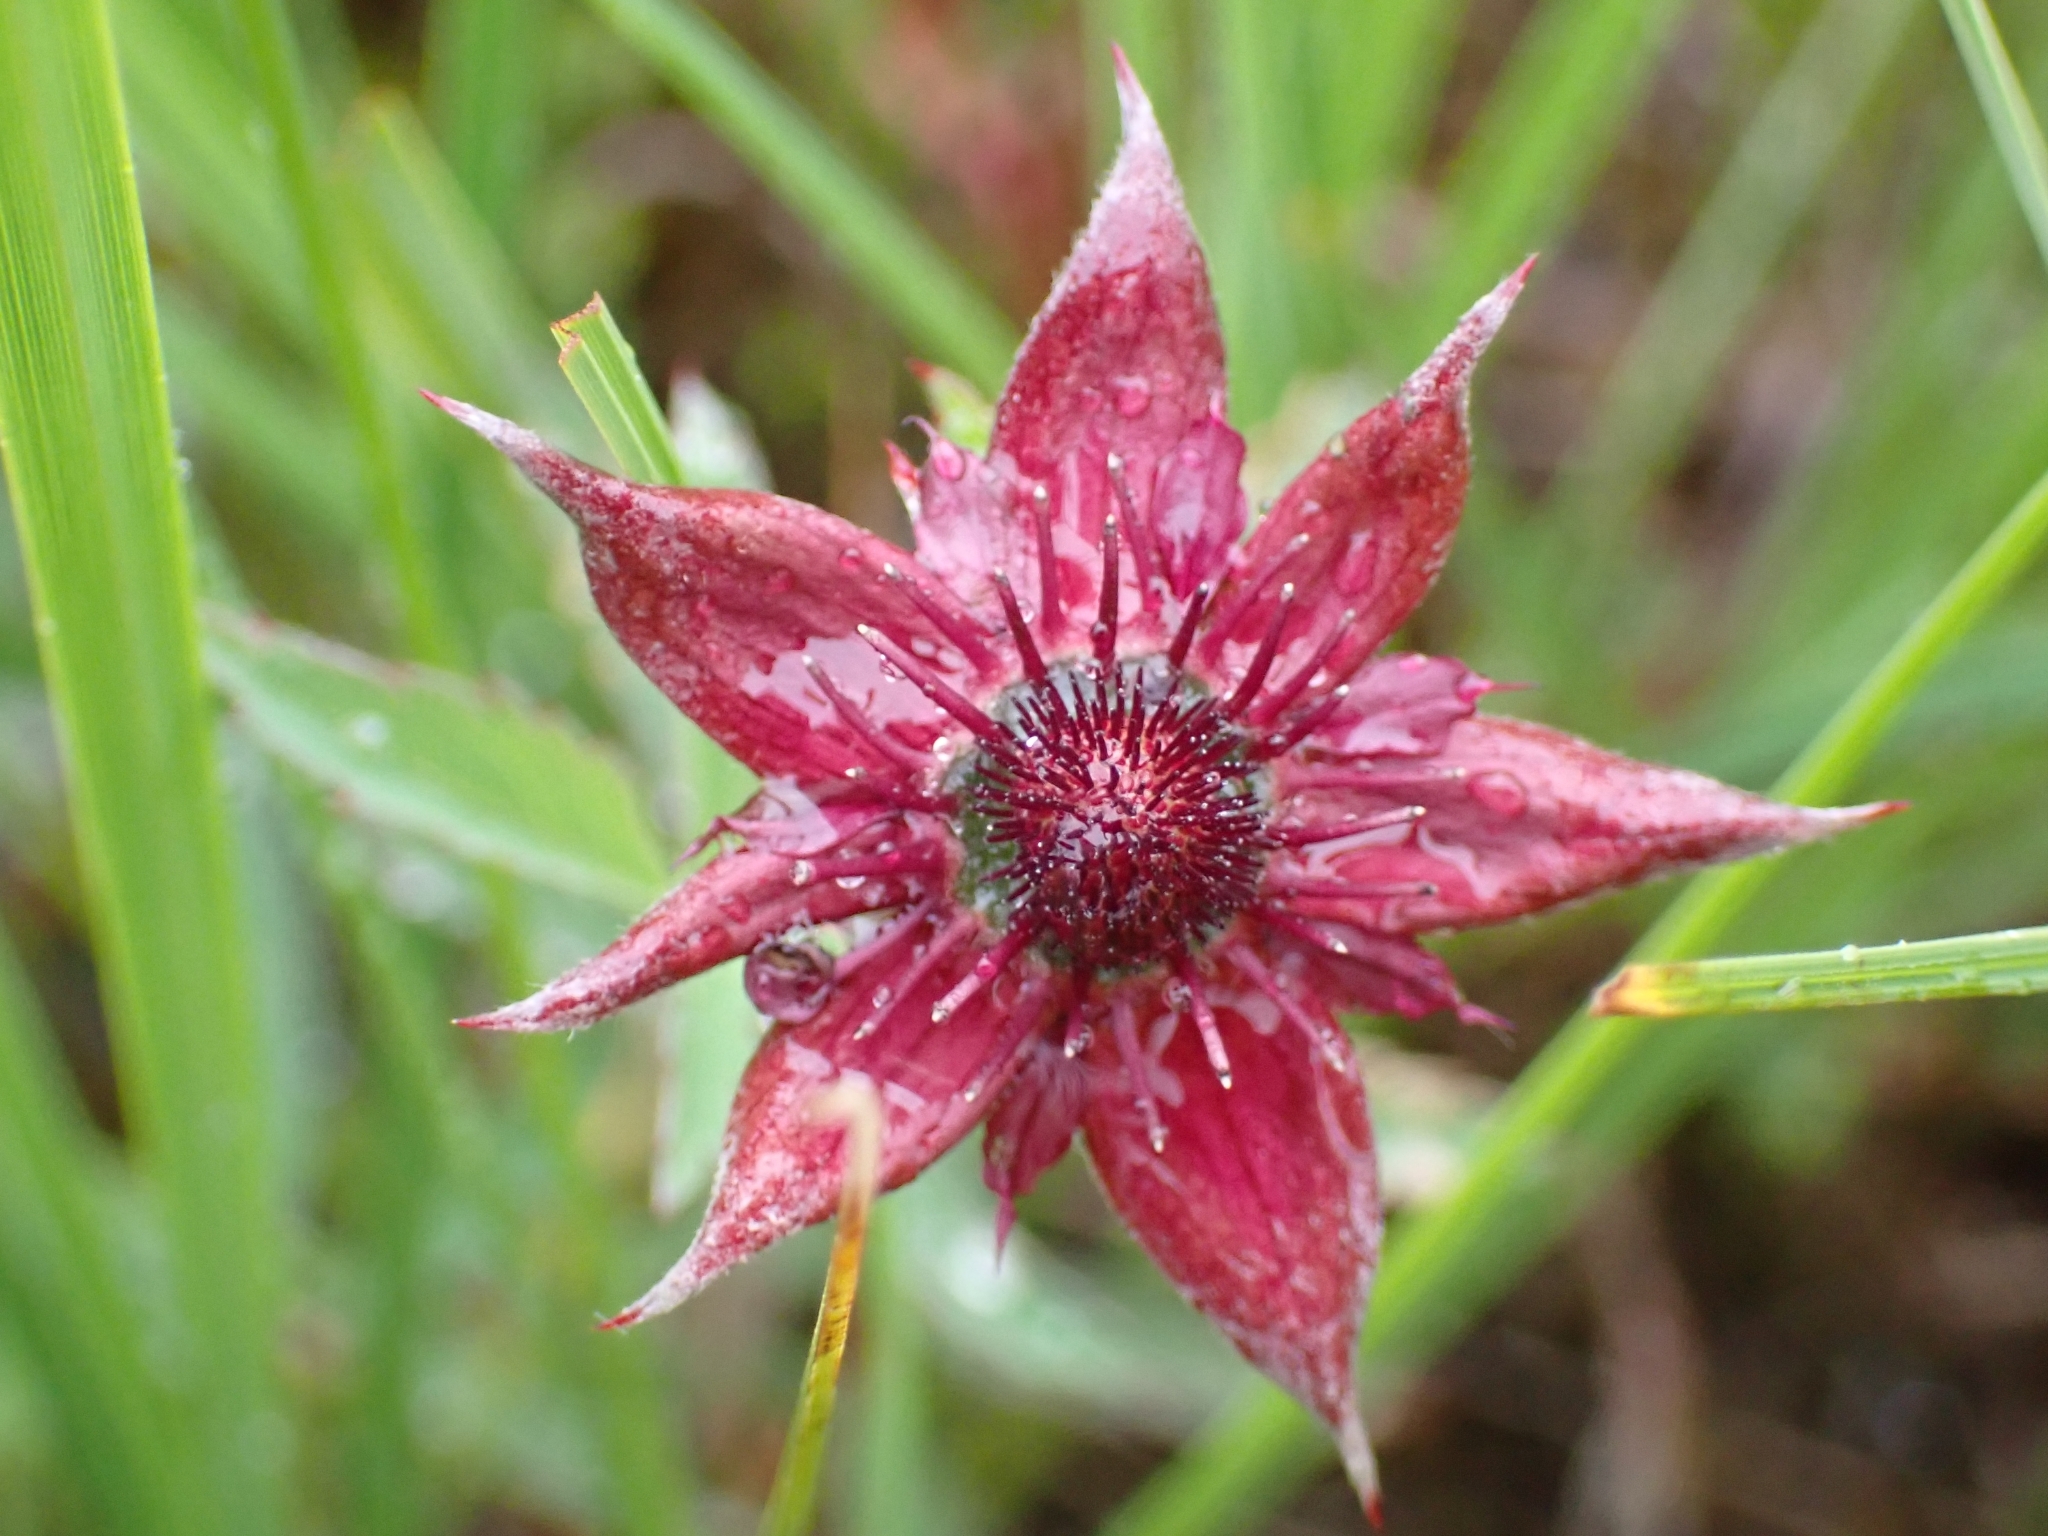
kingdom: Plantae
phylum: Tracheophyta
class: Magnoliopsida
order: Rosales
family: Rosaceae
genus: Comarum
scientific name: Comarum palustre
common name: Marsh cinquefoil
